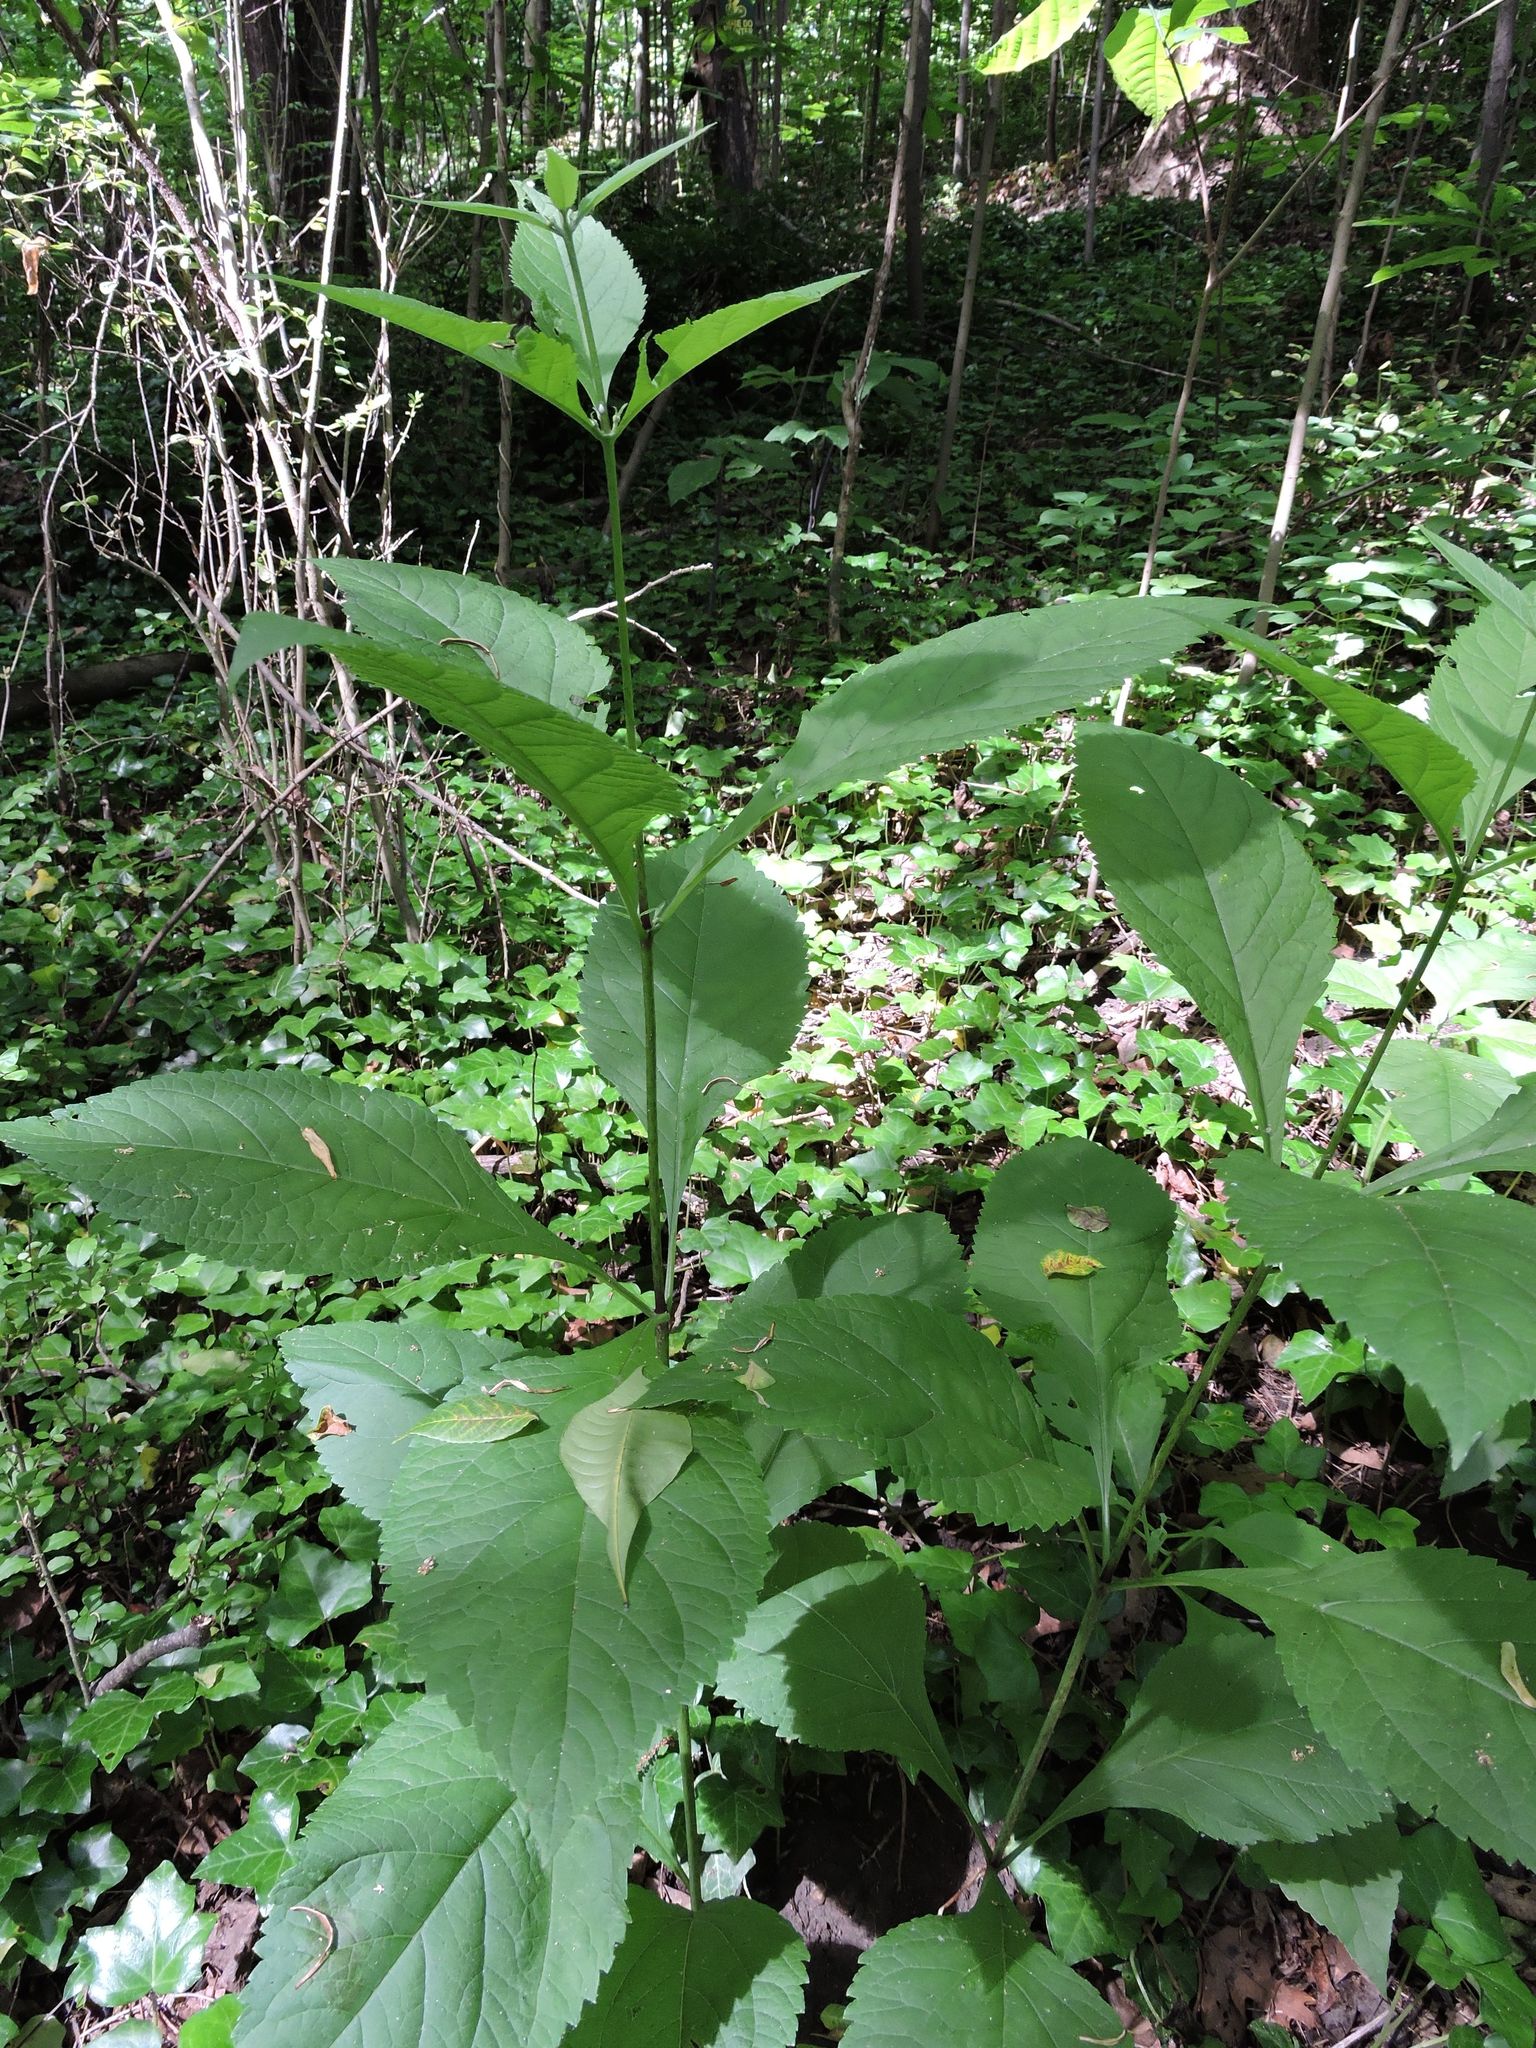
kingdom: Plantae
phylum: Tracheophyta
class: Magnoliopsida
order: Asterales
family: Asteraceae
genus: Eutrochium
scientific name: Eutrochium purpureum
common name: Gravelroot
